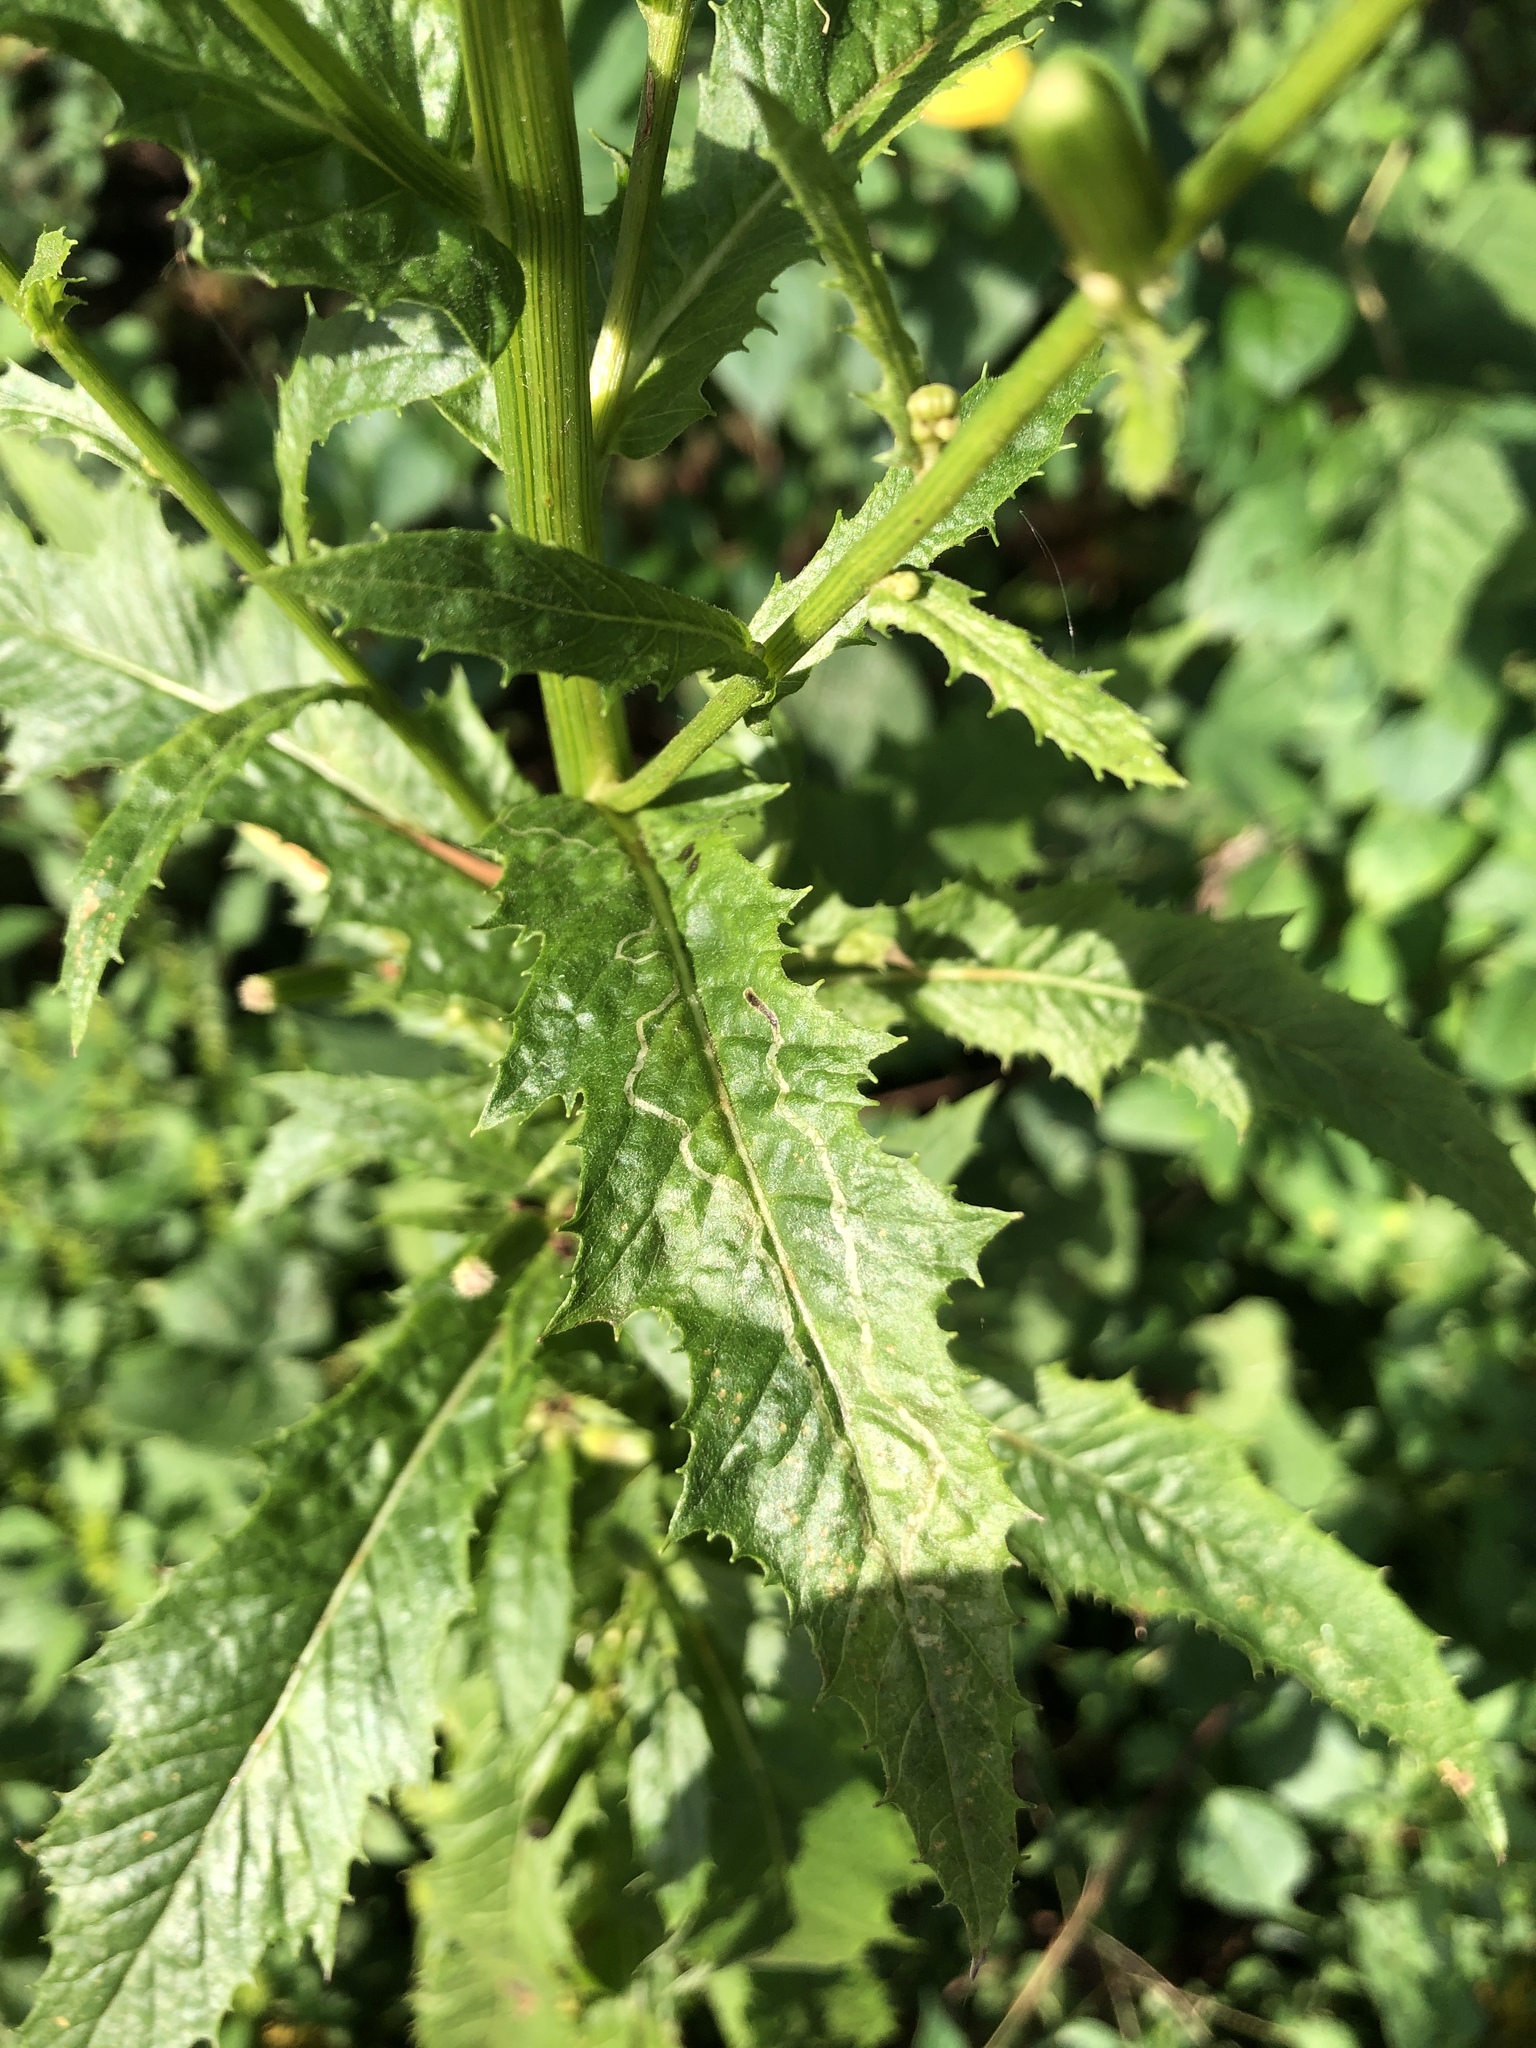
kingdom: Plantae
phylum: Tracheophyta
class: Magnoliopsida
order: Asterales
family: Asteraceae
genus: Erechtites
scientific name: Erechtites hieraciifolius
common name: American burnweed
